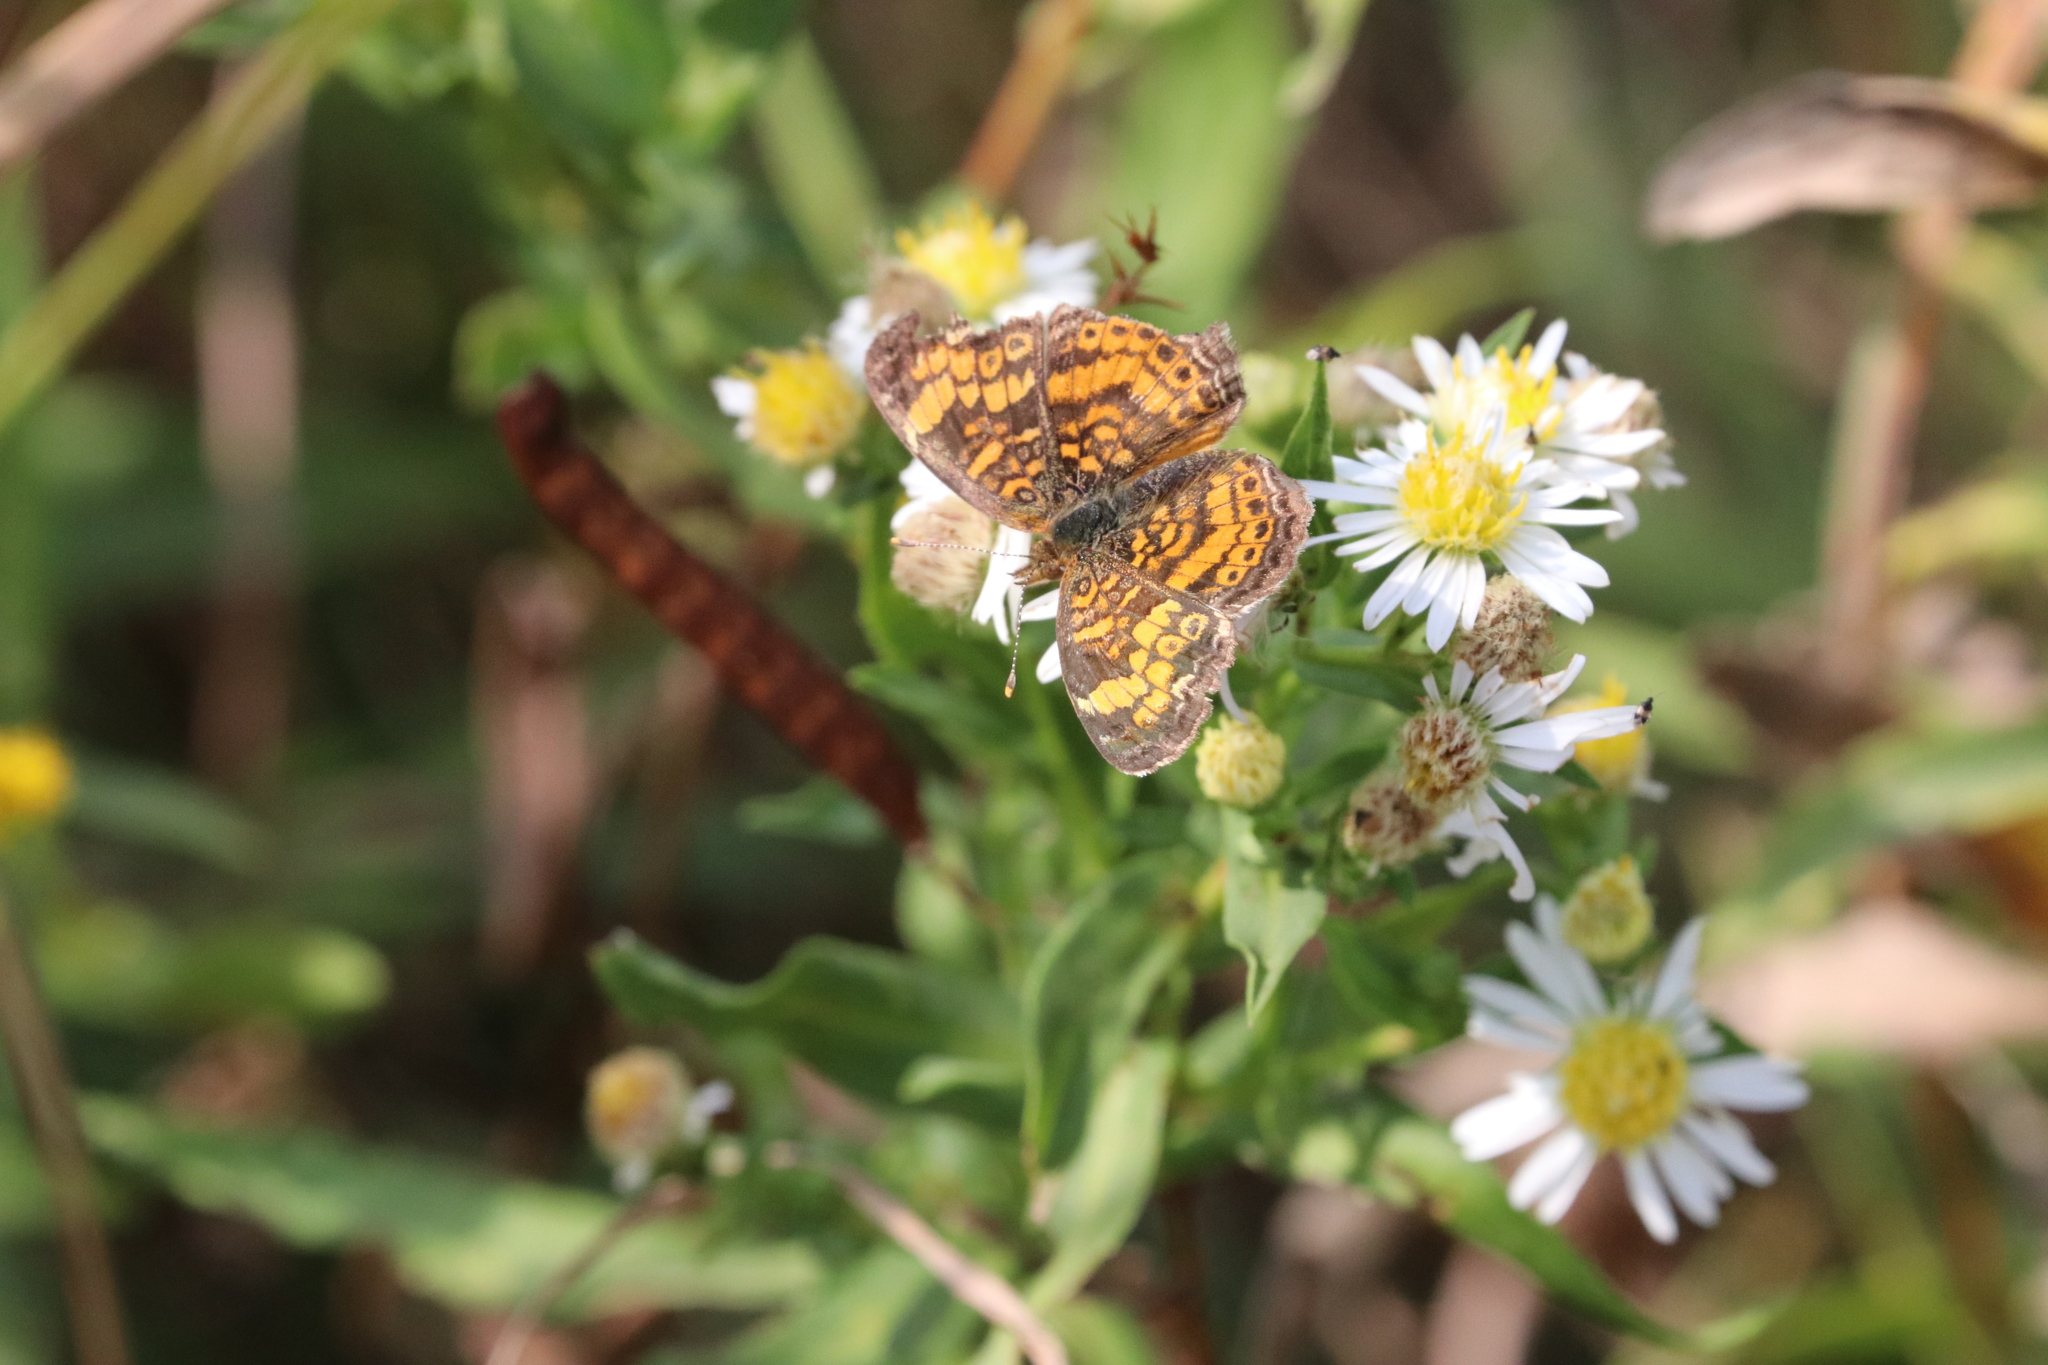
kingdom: Animalia
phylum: Arthropoda
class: Insecta
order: Lepidoptera
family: Nymphalidae
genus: Phyciodes
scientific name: Phyciodes tharos
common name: Pearl crescent
